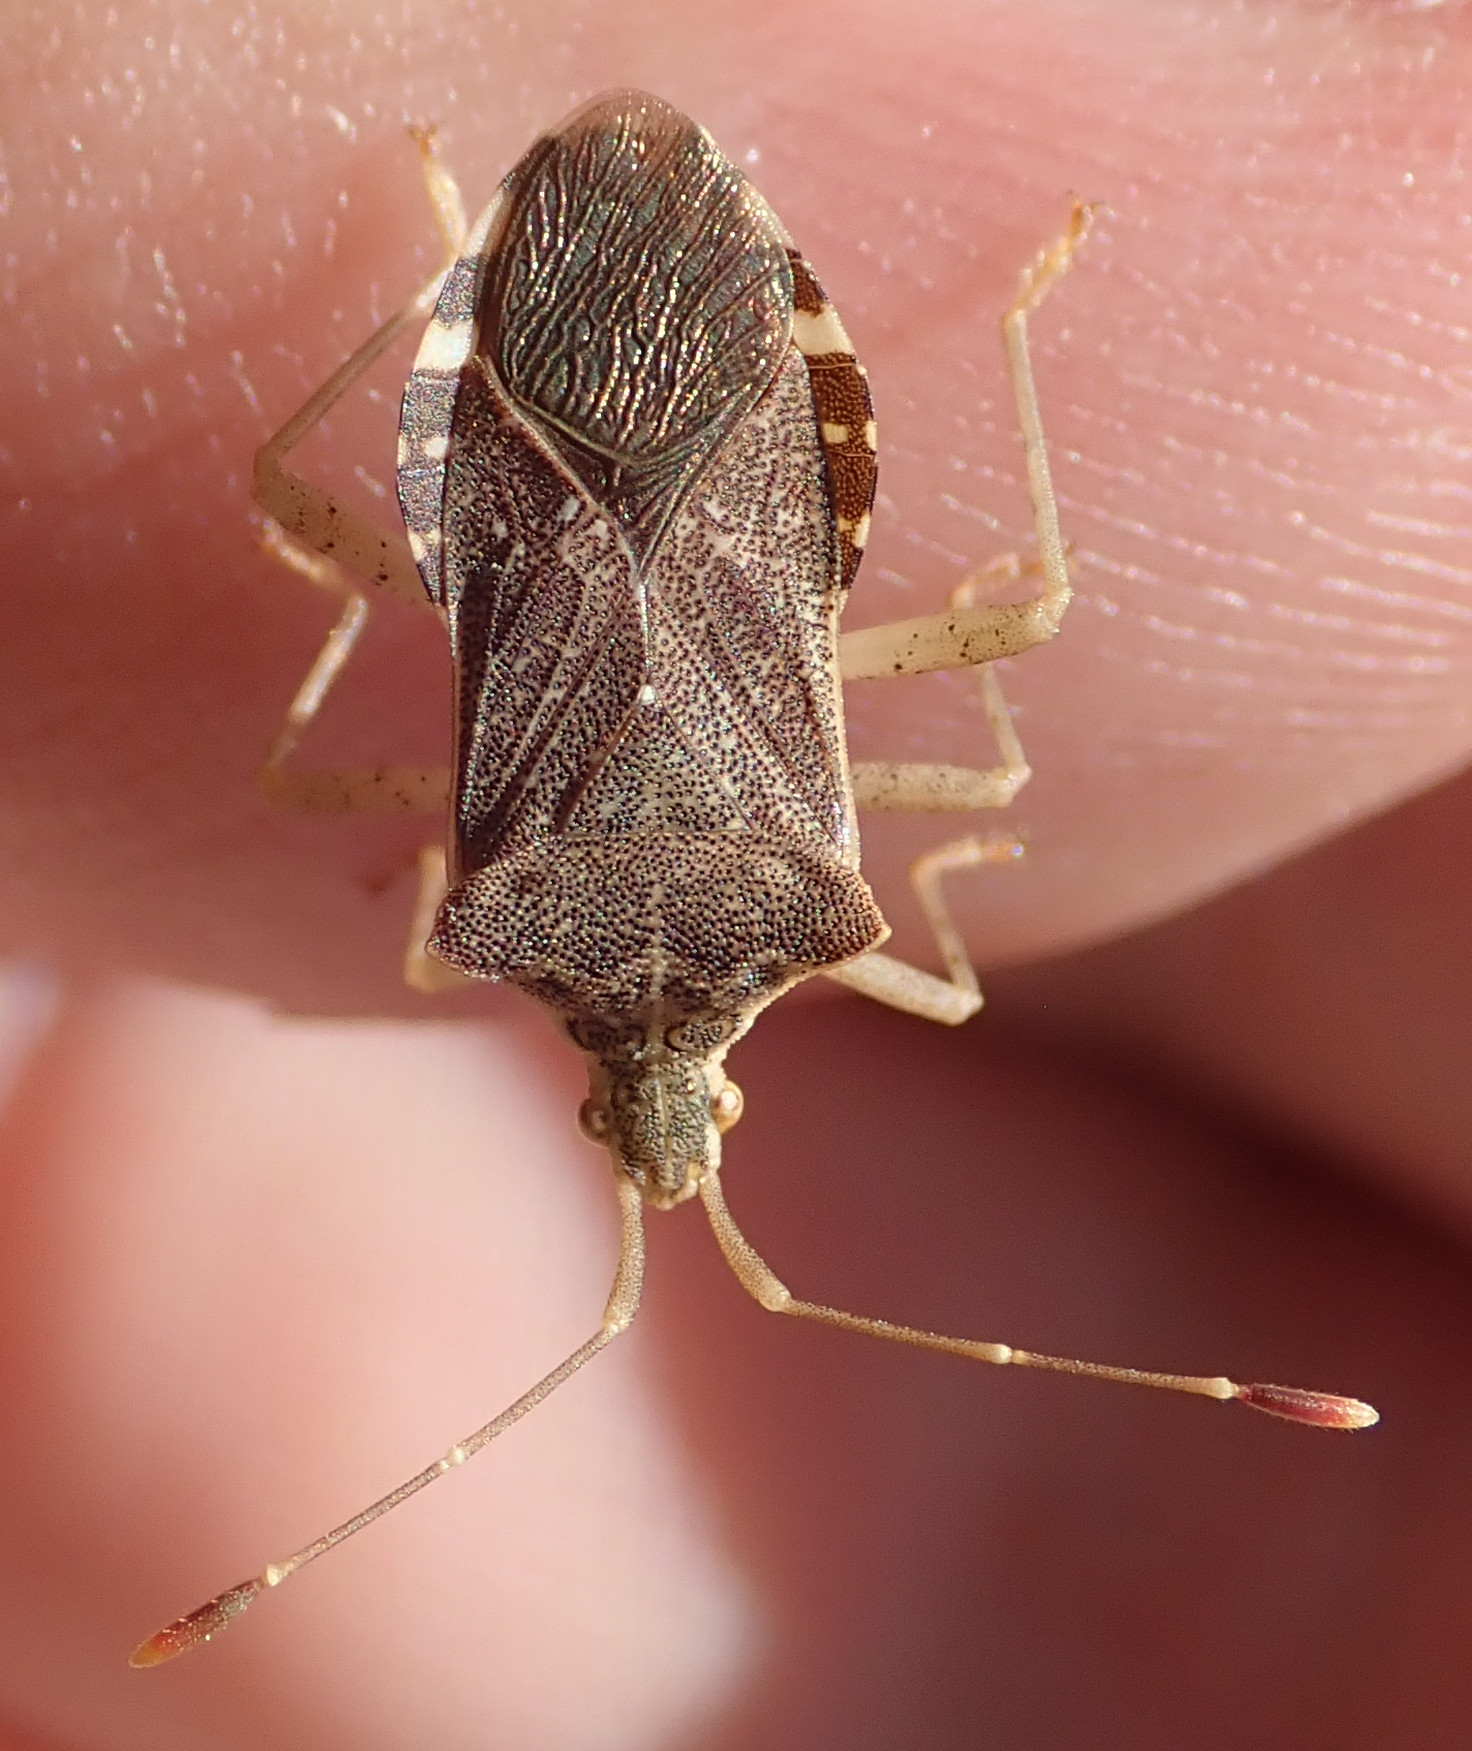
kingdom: Animalia
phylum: Arthropoda
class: Insecta
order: Hemiptera
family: Coreidae
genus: Cletomorpha
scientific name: Cletomorpha nyasana
